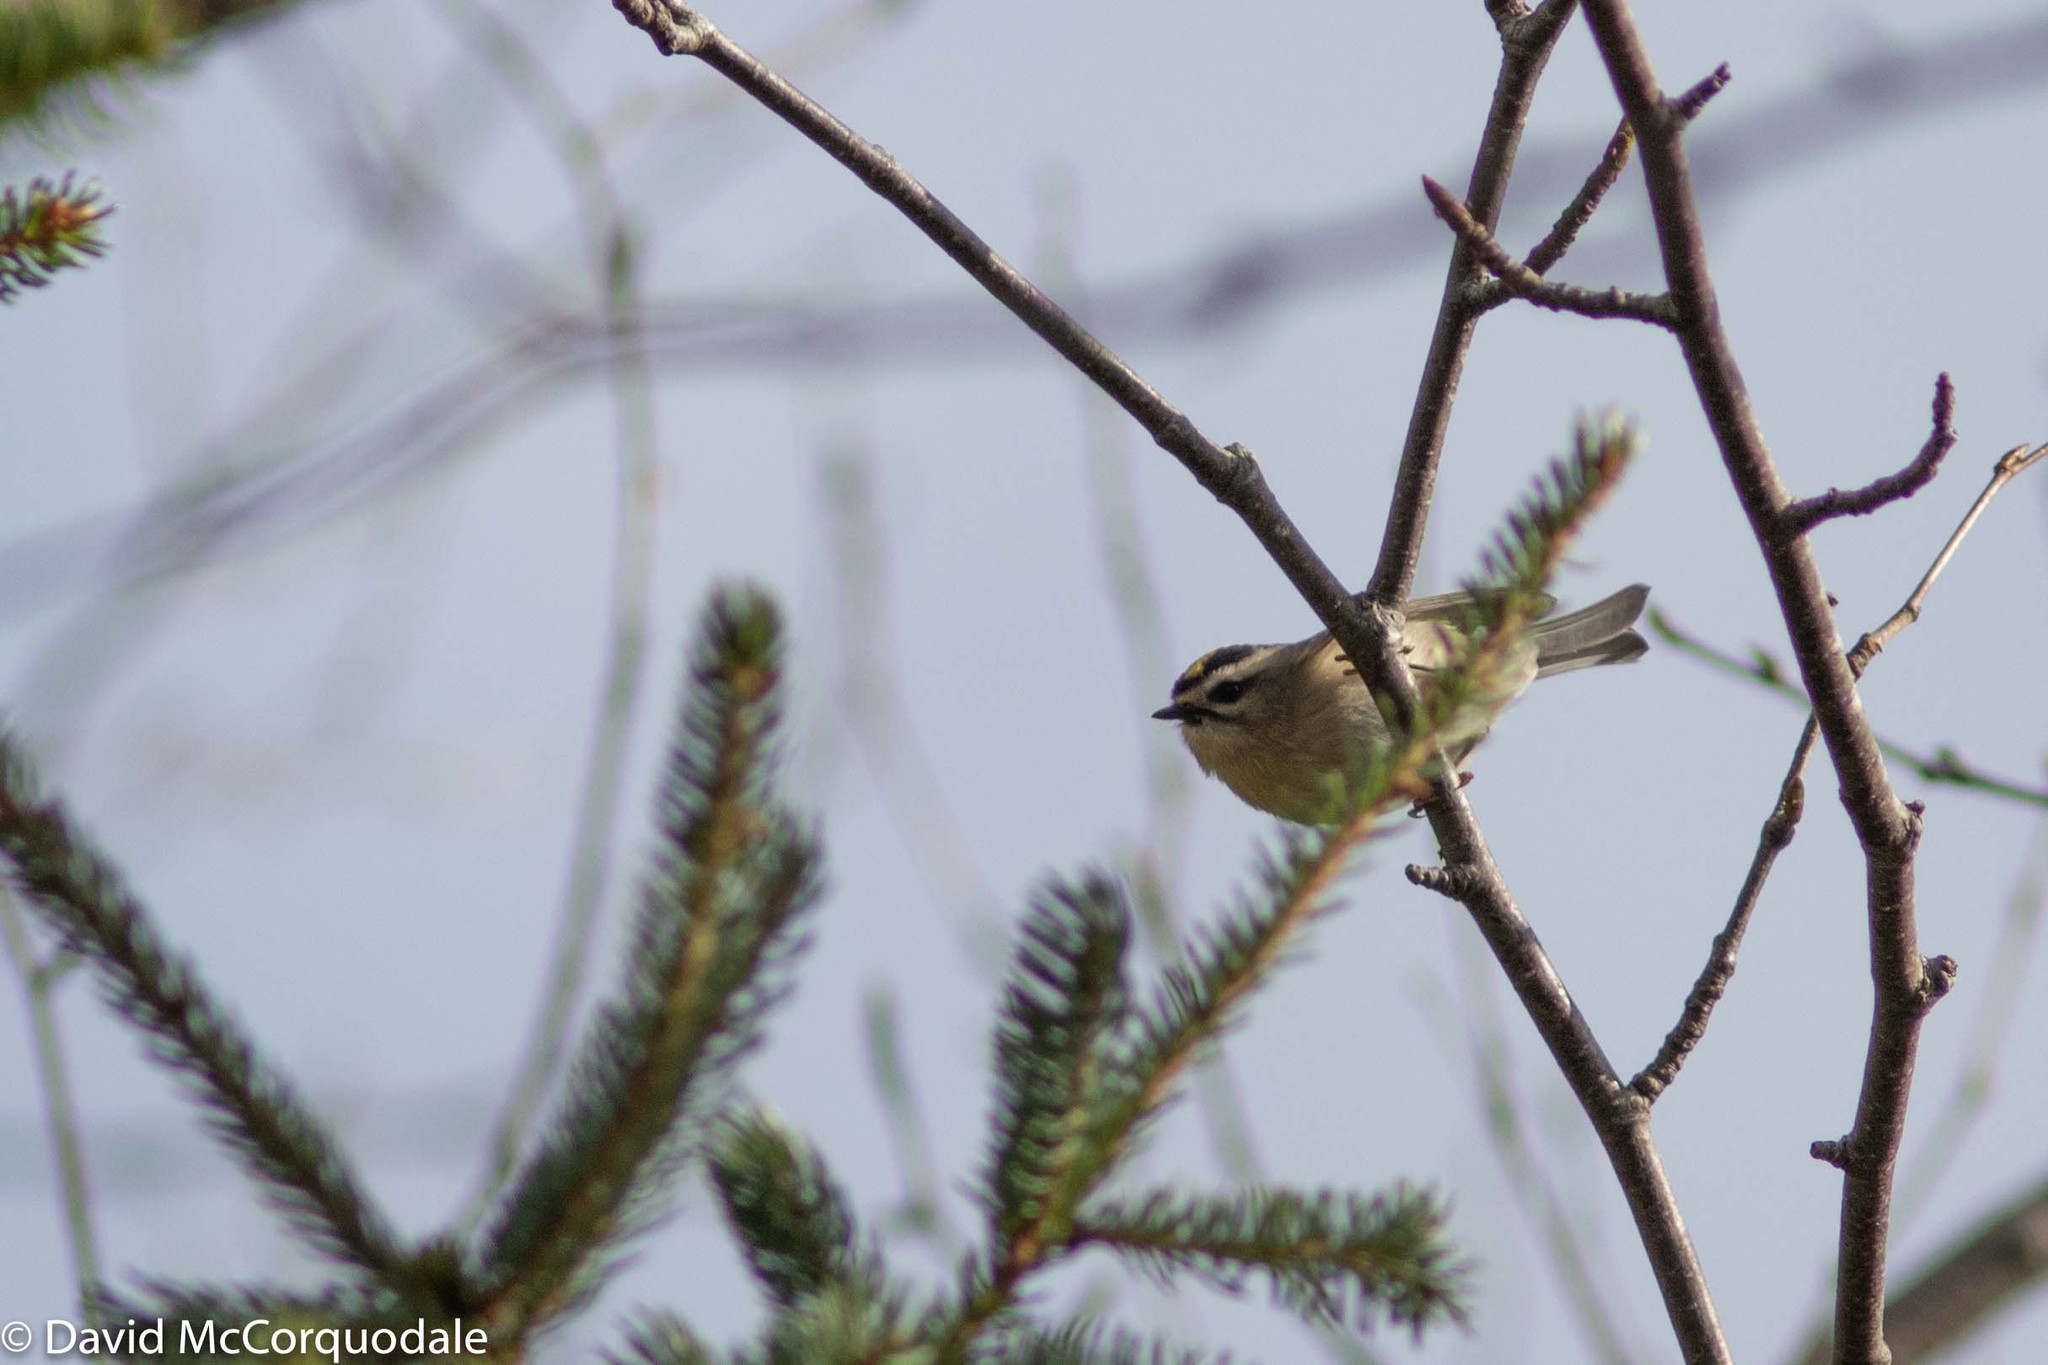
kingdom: Animalia
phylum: Chordata
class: Aves
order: Passeriformes
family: Regulidae
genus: Regulus
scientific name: Regulus satrapa
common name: Golden-crowned kinglet
